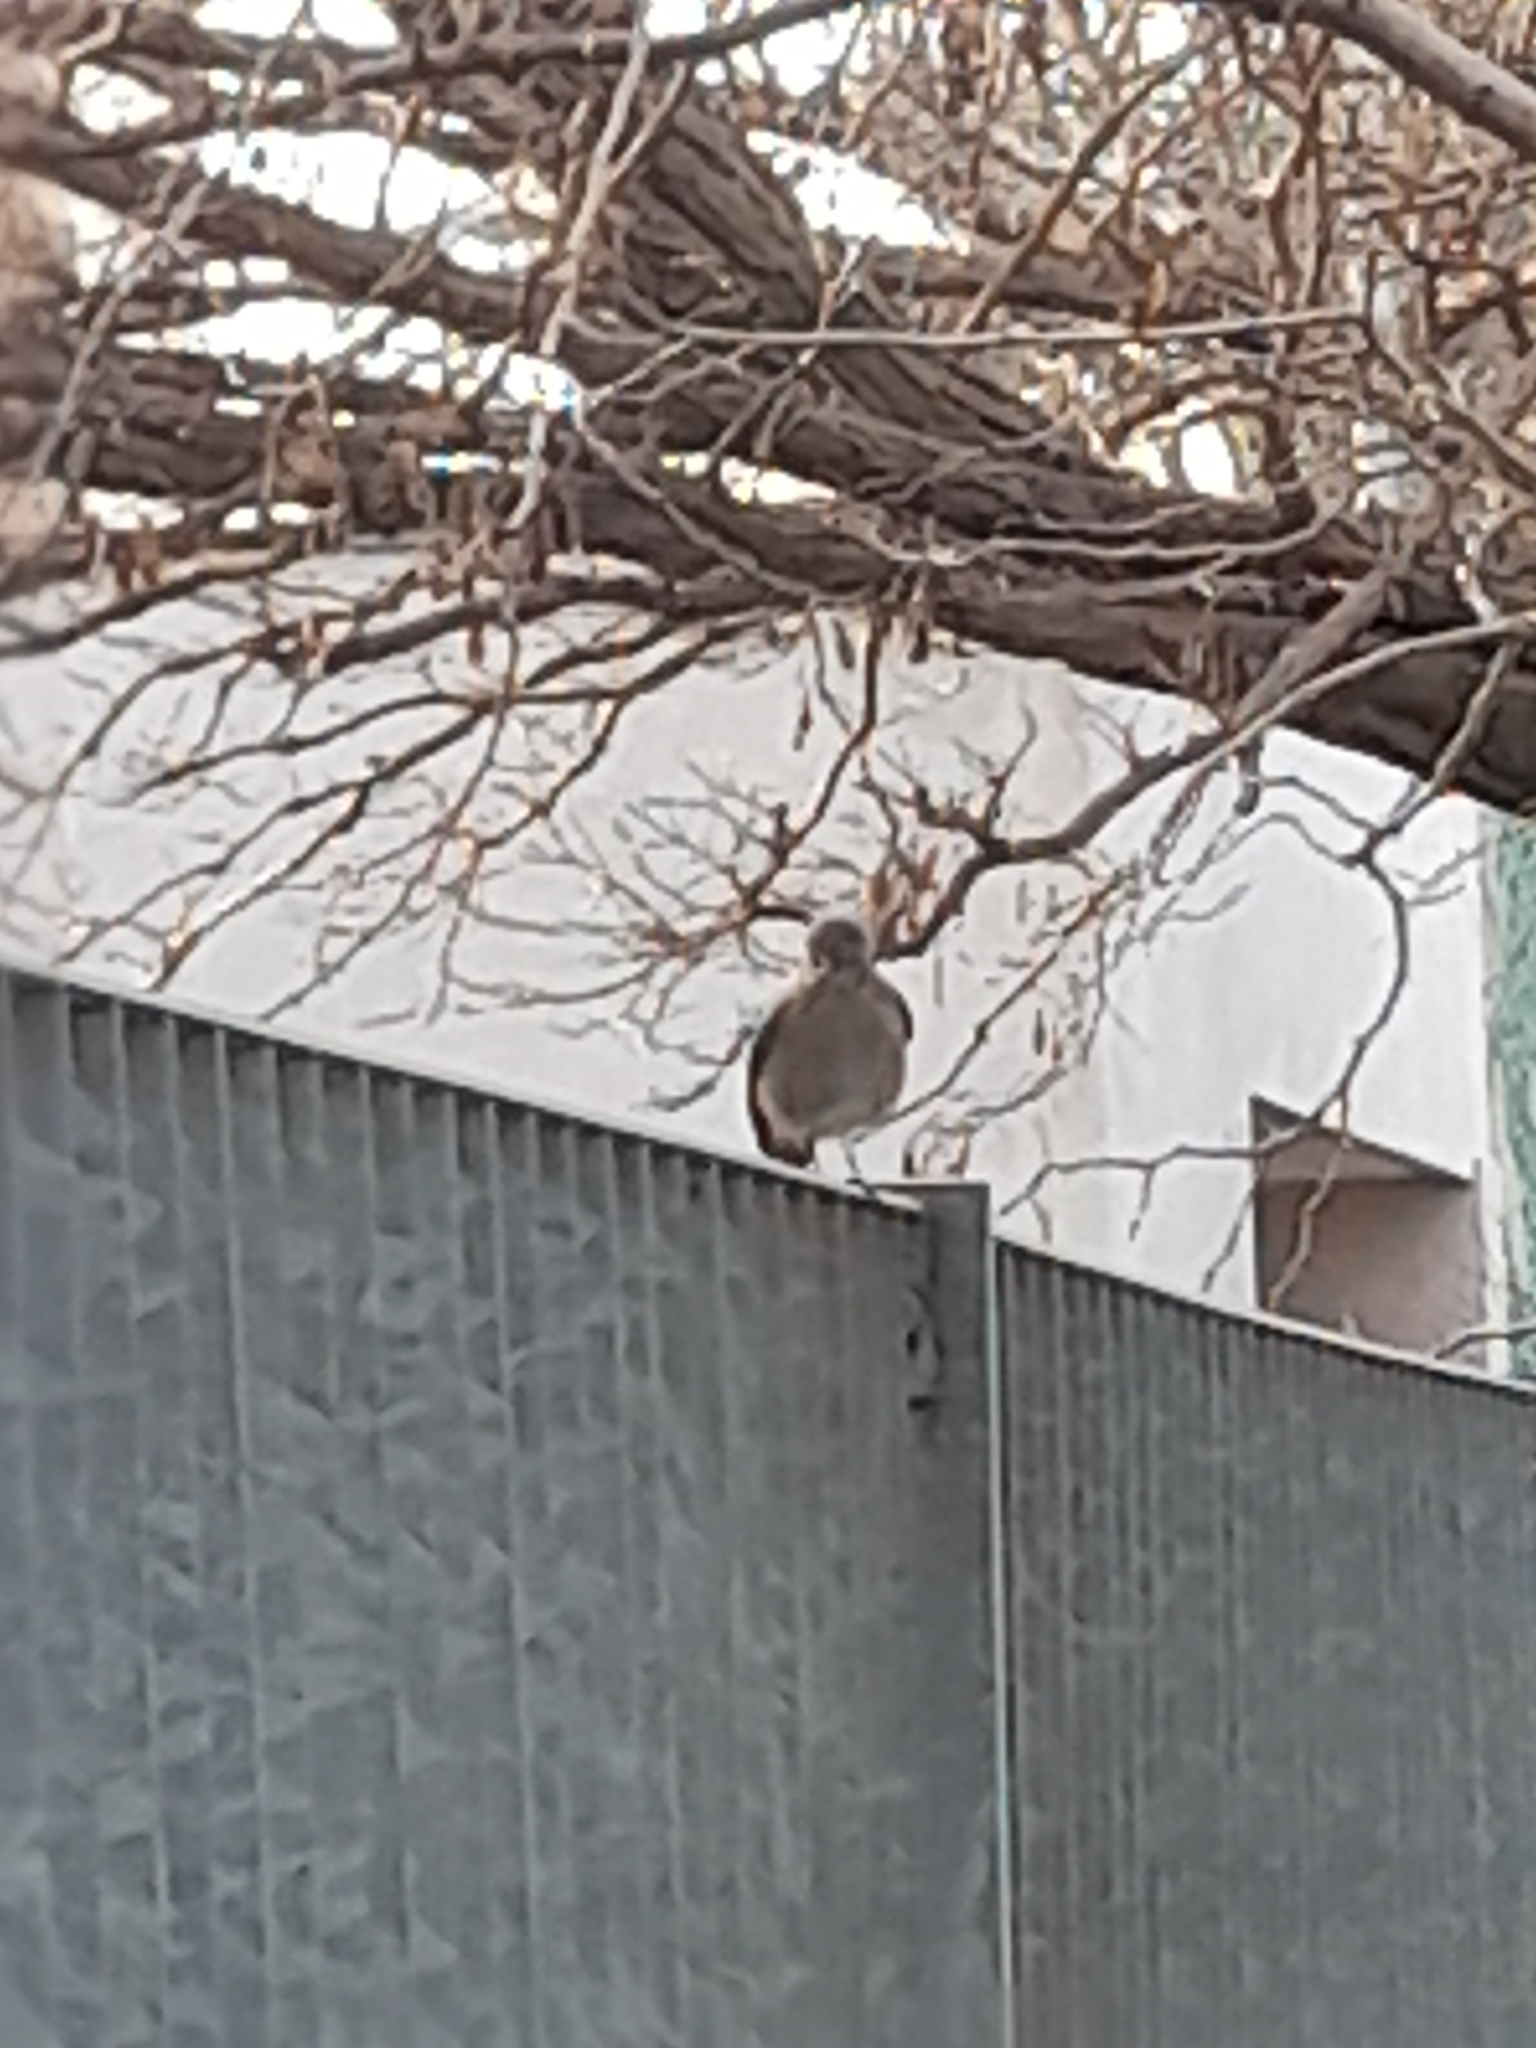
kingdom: Animalia
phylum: Chordata
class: Aves
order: Passeriformes
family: Muscicapidae
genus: Phoenicurus
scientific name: Phoenicurus ochruros
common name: Black redstart
